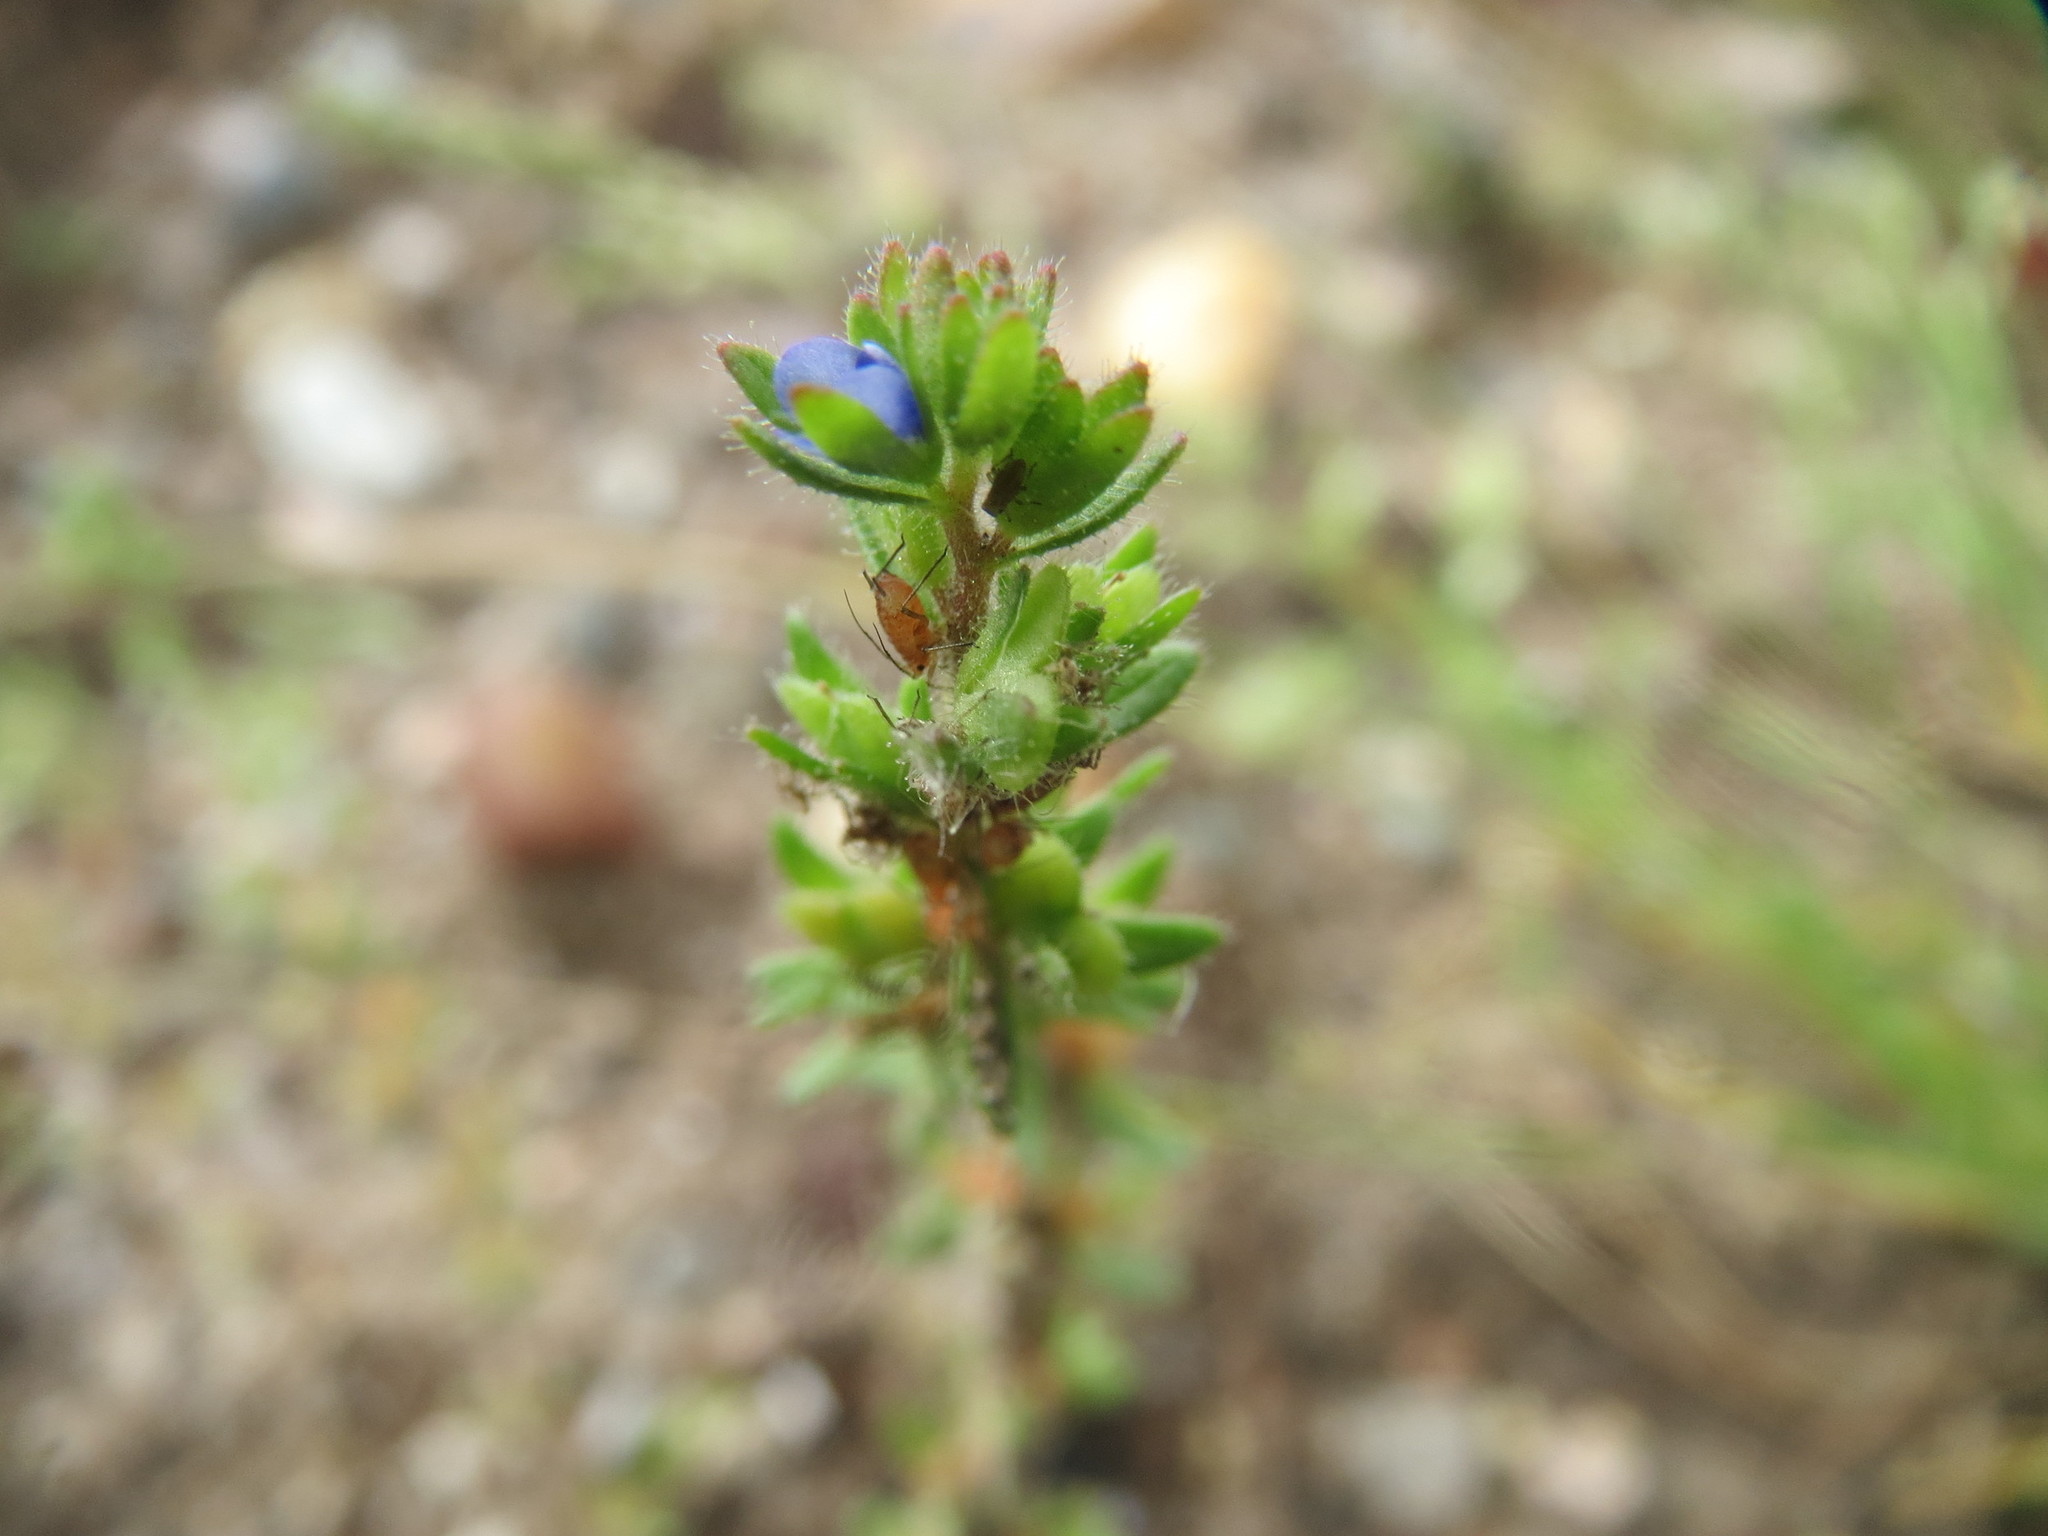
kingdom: Plantae
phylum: Tracheophyta
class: Magnoliopsida
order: Lamiales
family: Plantaginaceae
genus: Veronica
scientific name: Veronica arvensis
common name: Corn speedwell
